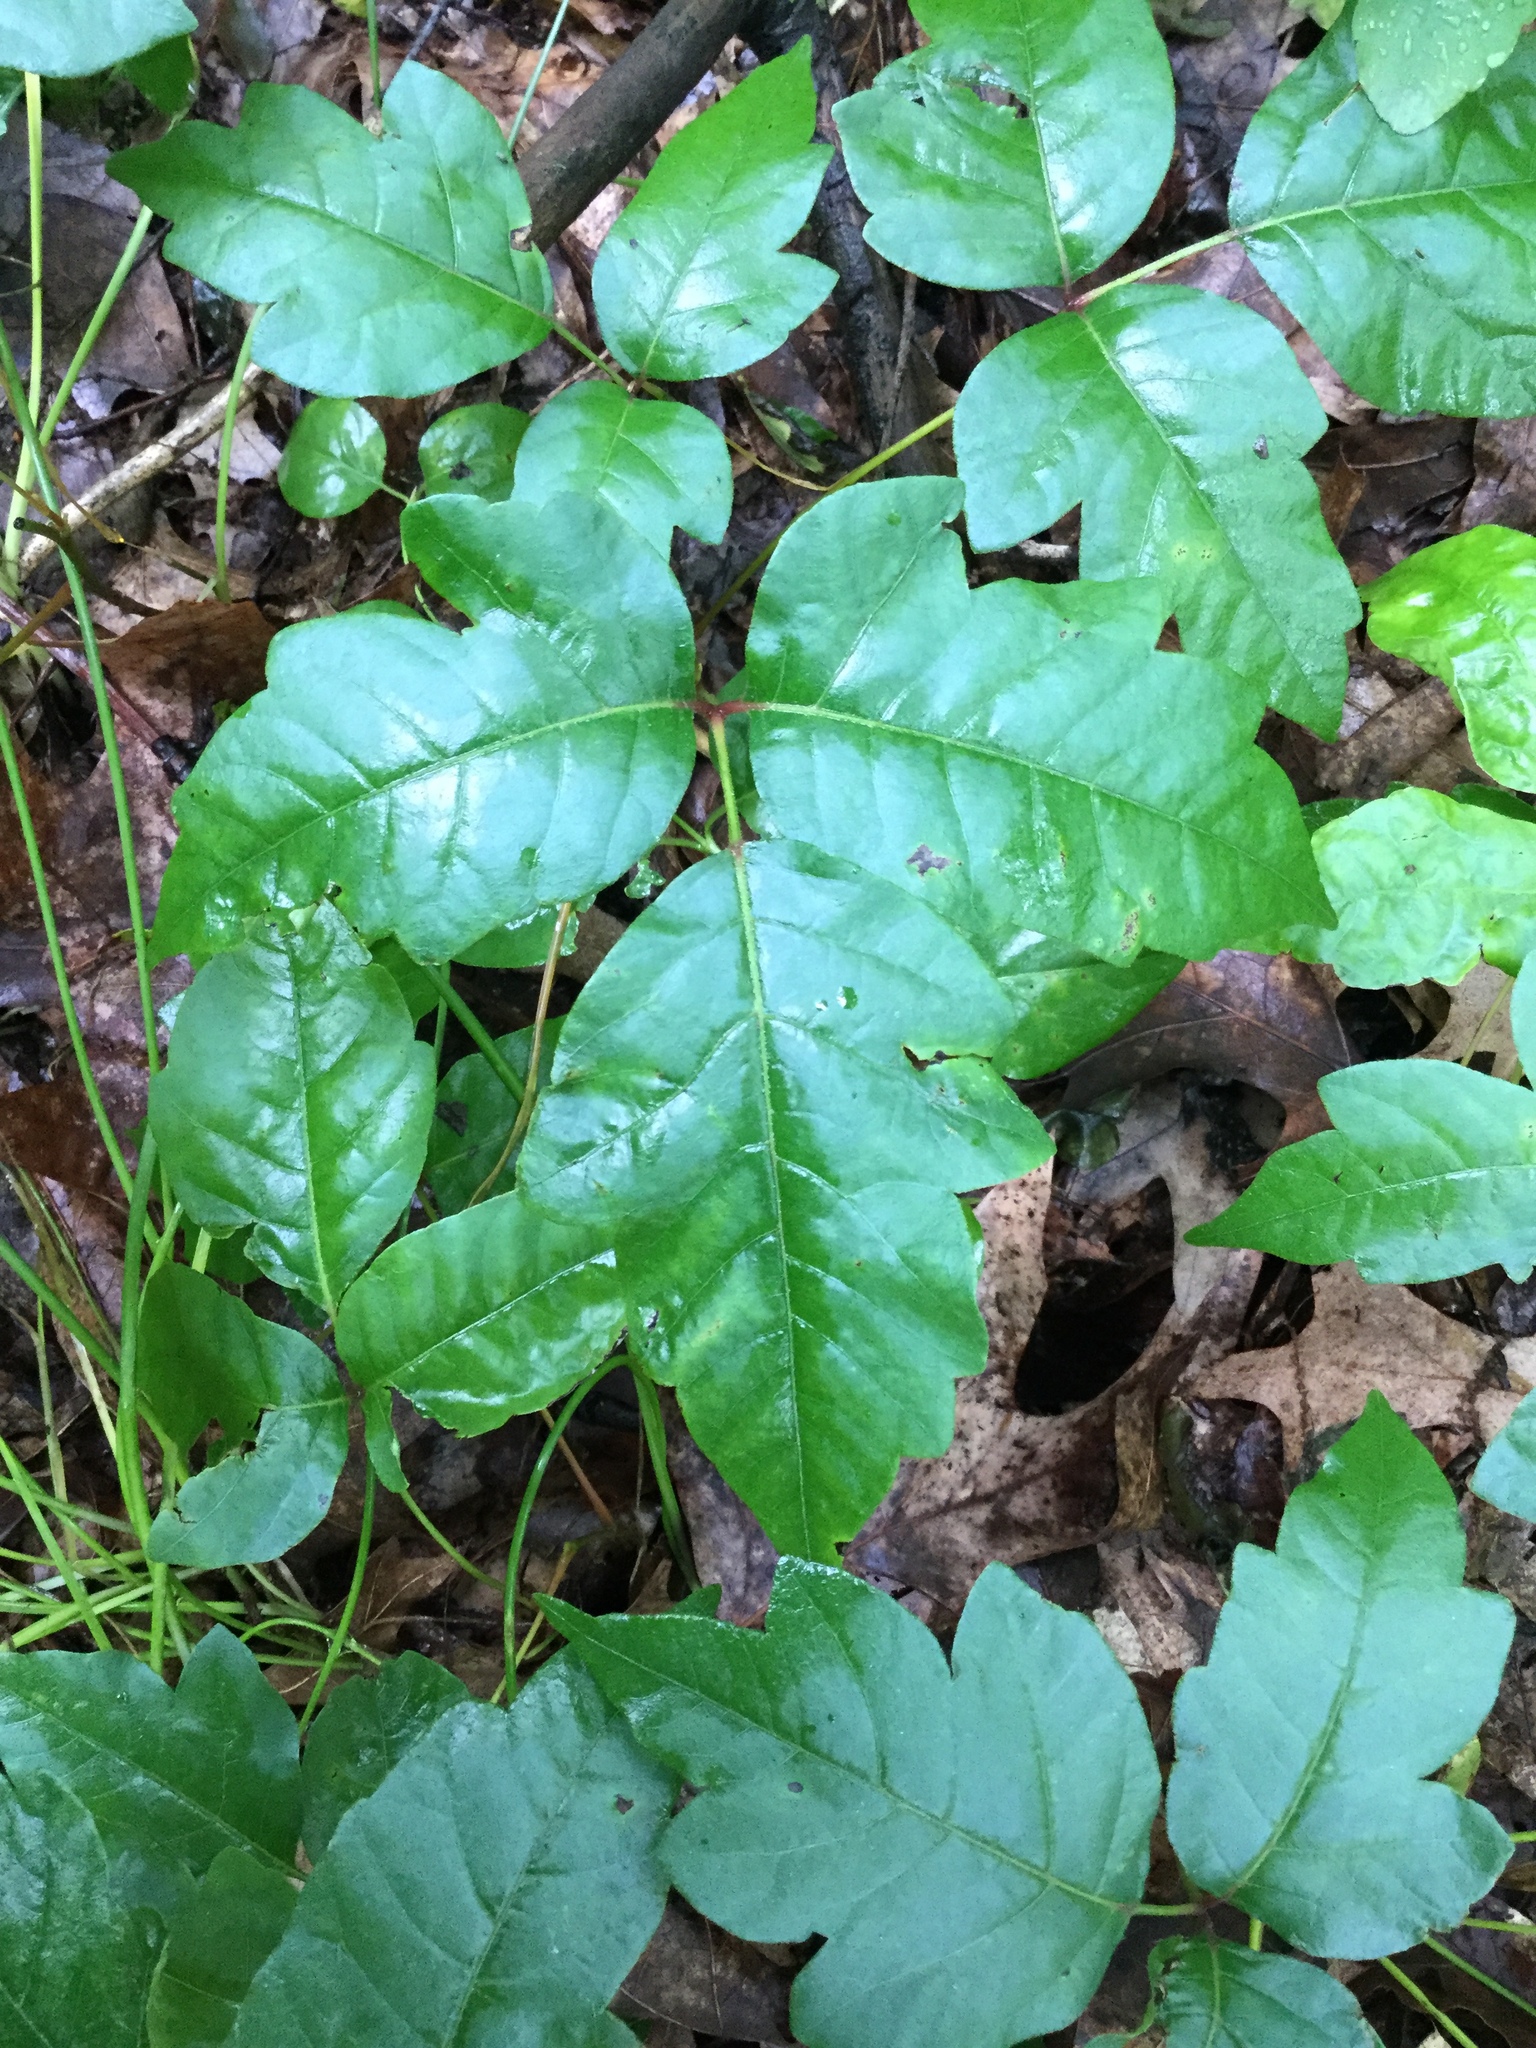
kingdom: Plantae
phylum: Tracheophyta
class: Magnoliopsida
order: Sapindales
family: Anacardiaceae
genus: Toxicodendron
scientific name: Toxicodendron radicans
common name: Poison ivy
